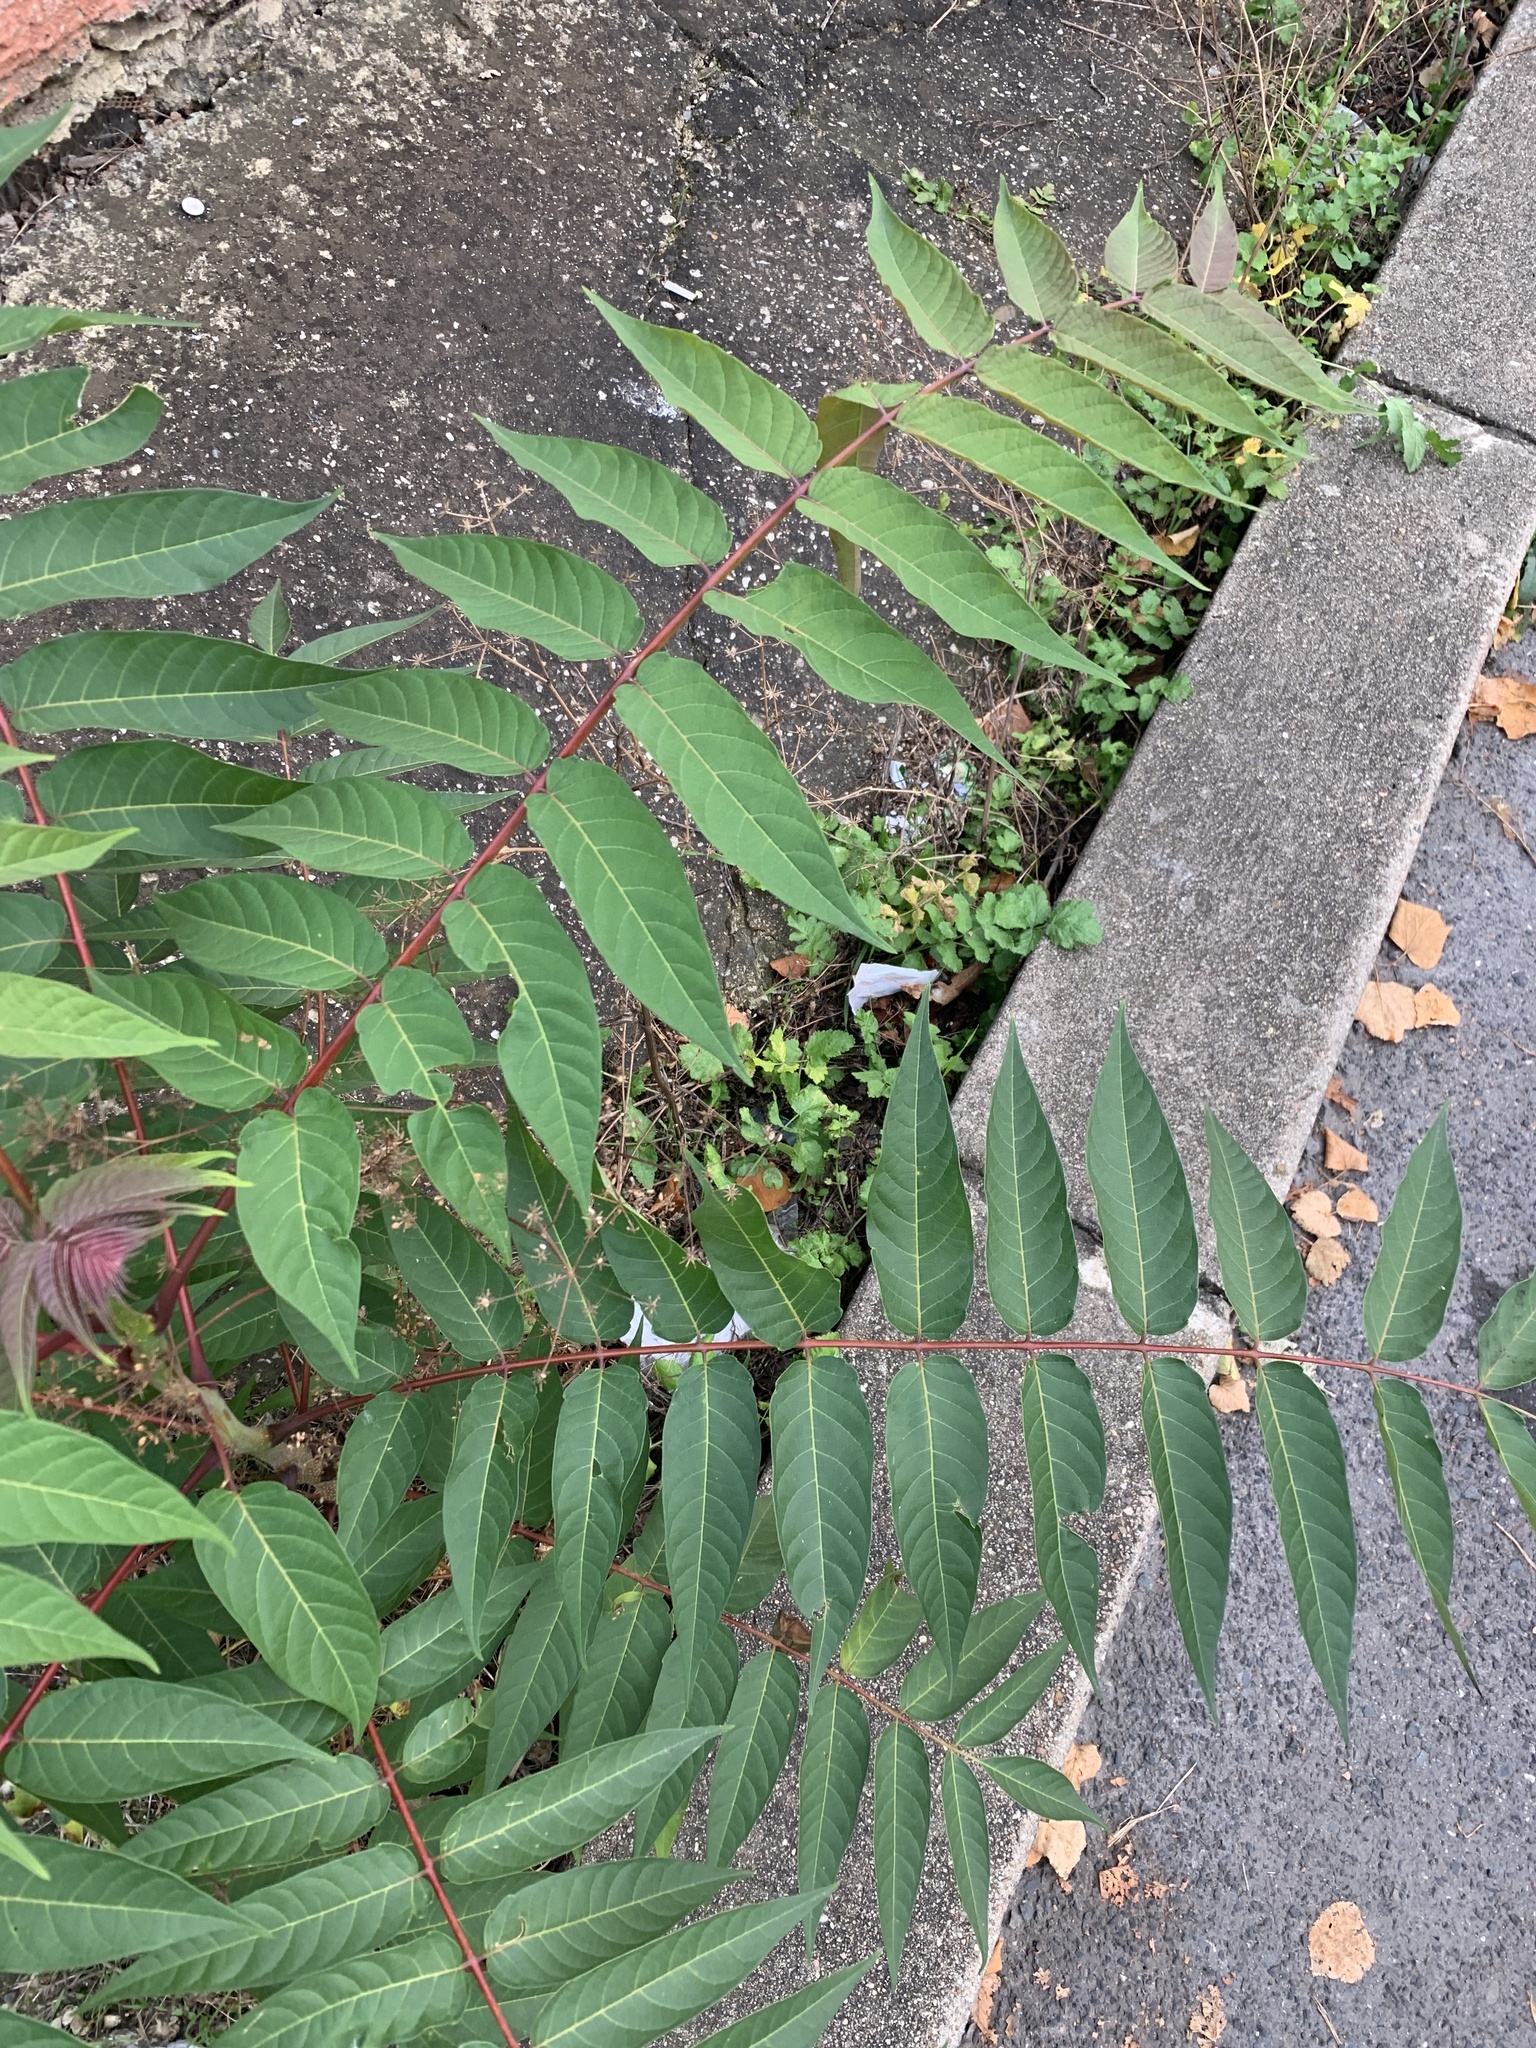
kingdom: Plantae
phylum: Tracheophyta
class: Magnoliopsida
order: Sapindales
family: Simaroubaceae
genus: Ailanthus
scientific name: Ailanthus altissima
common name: Tree-of-heaven
